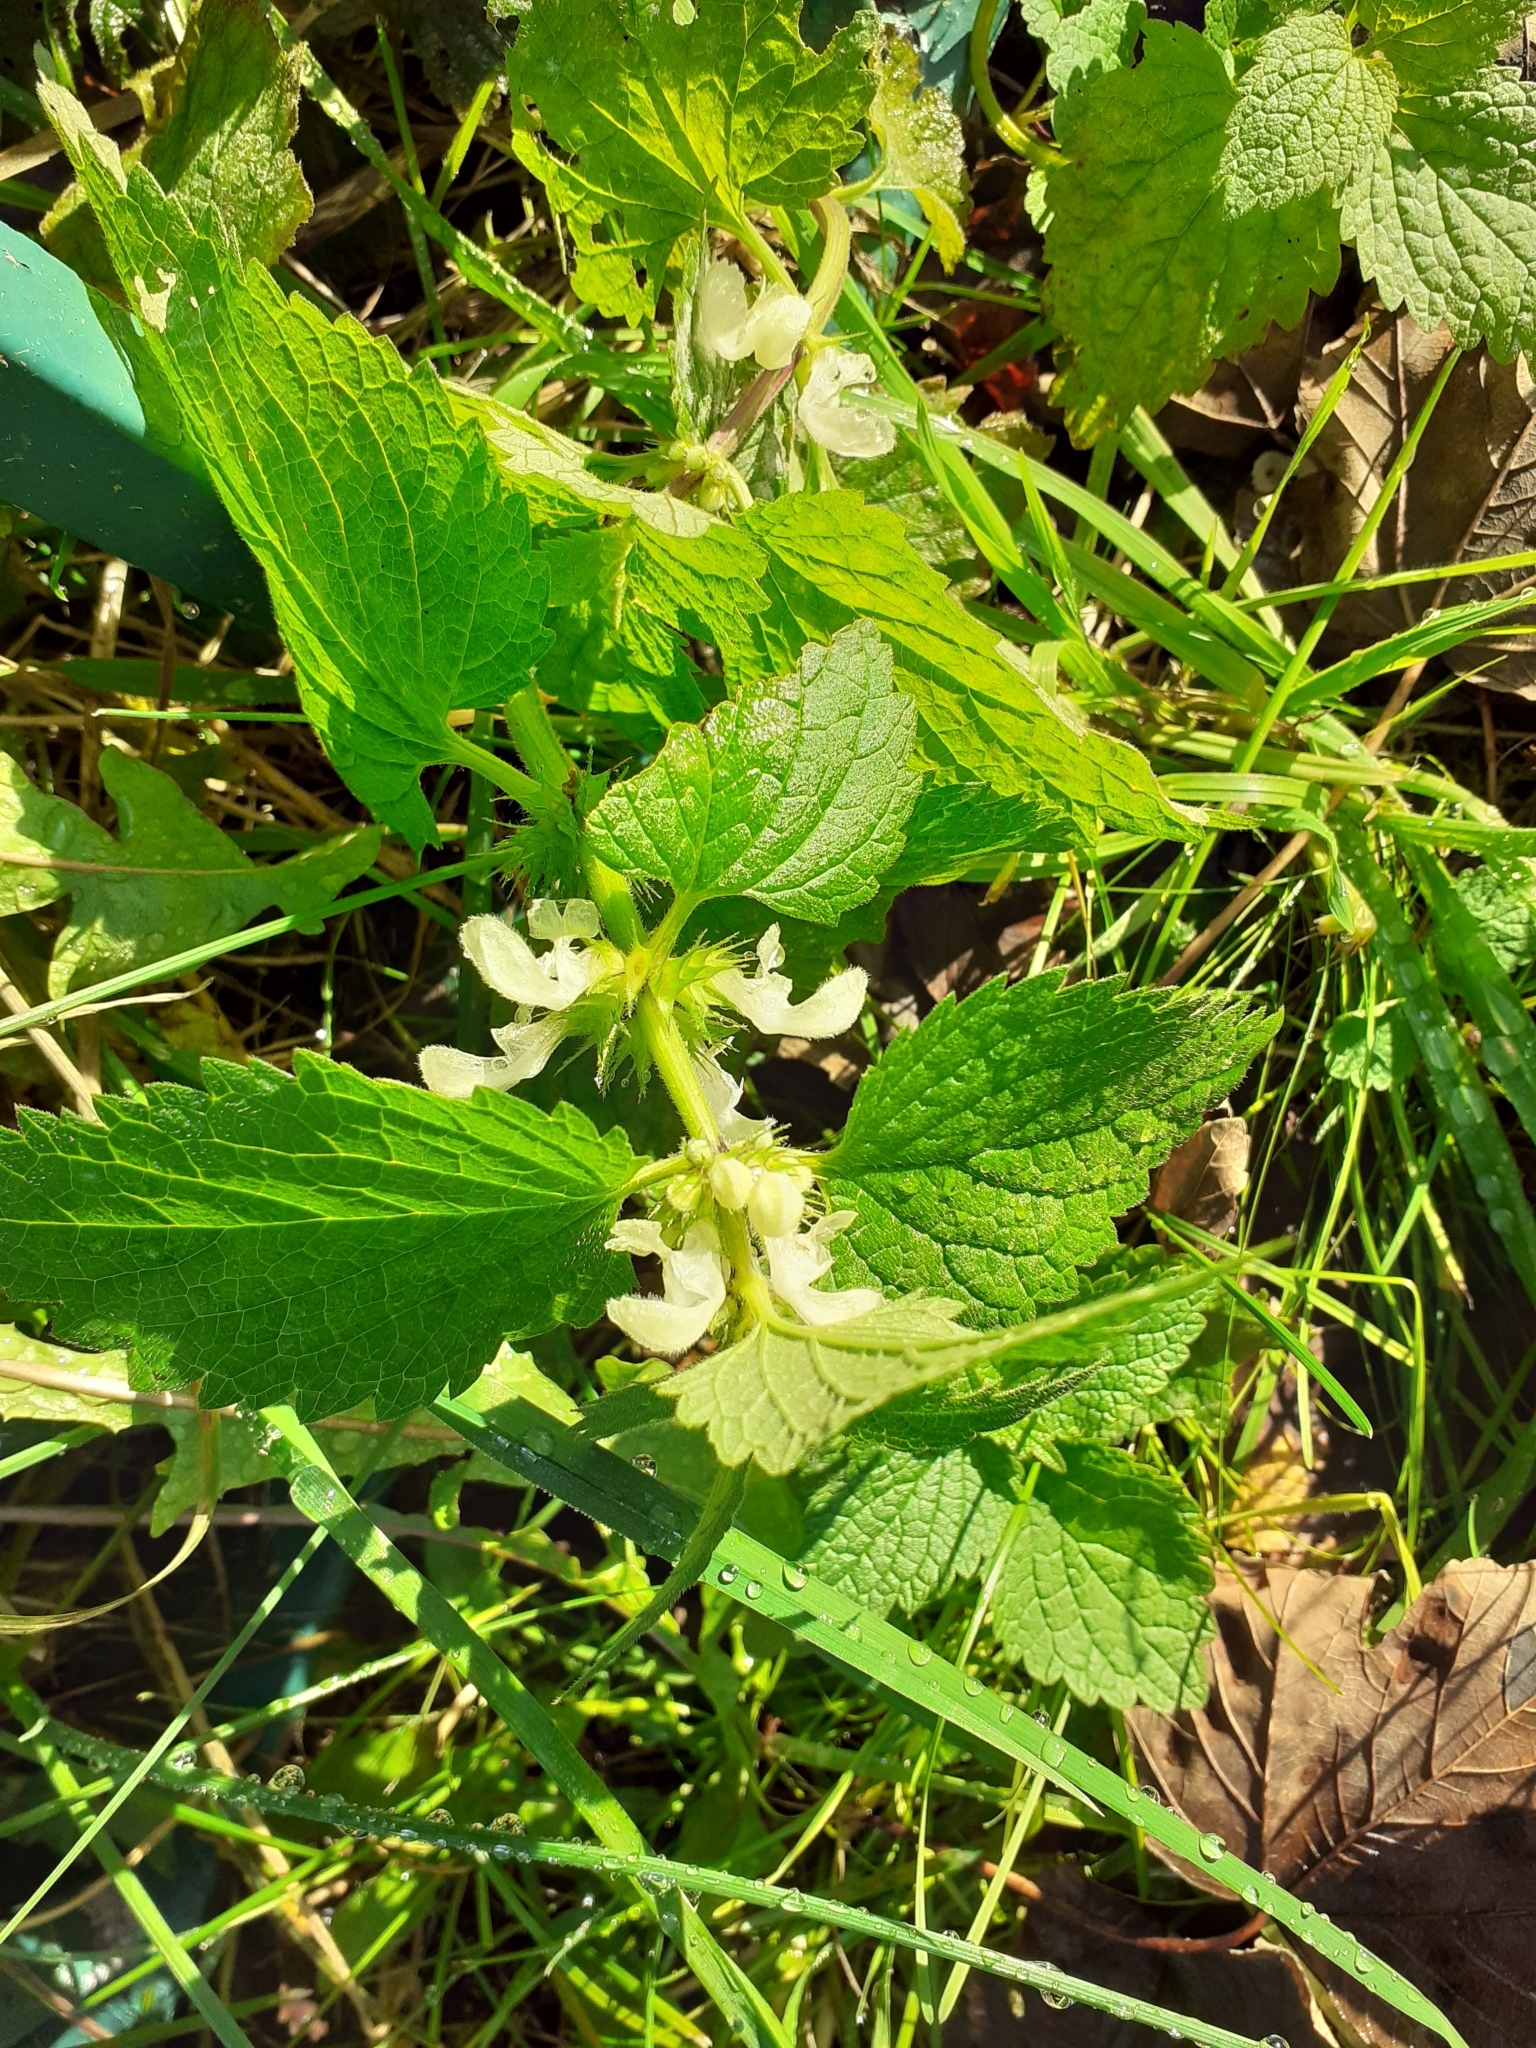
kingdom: Plantae
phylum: Tracheophyta
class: Magnoliopsida
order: Lamiales
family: Lamiaceae
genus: Lamium
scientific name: Lamium album
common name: White dead-nettle
